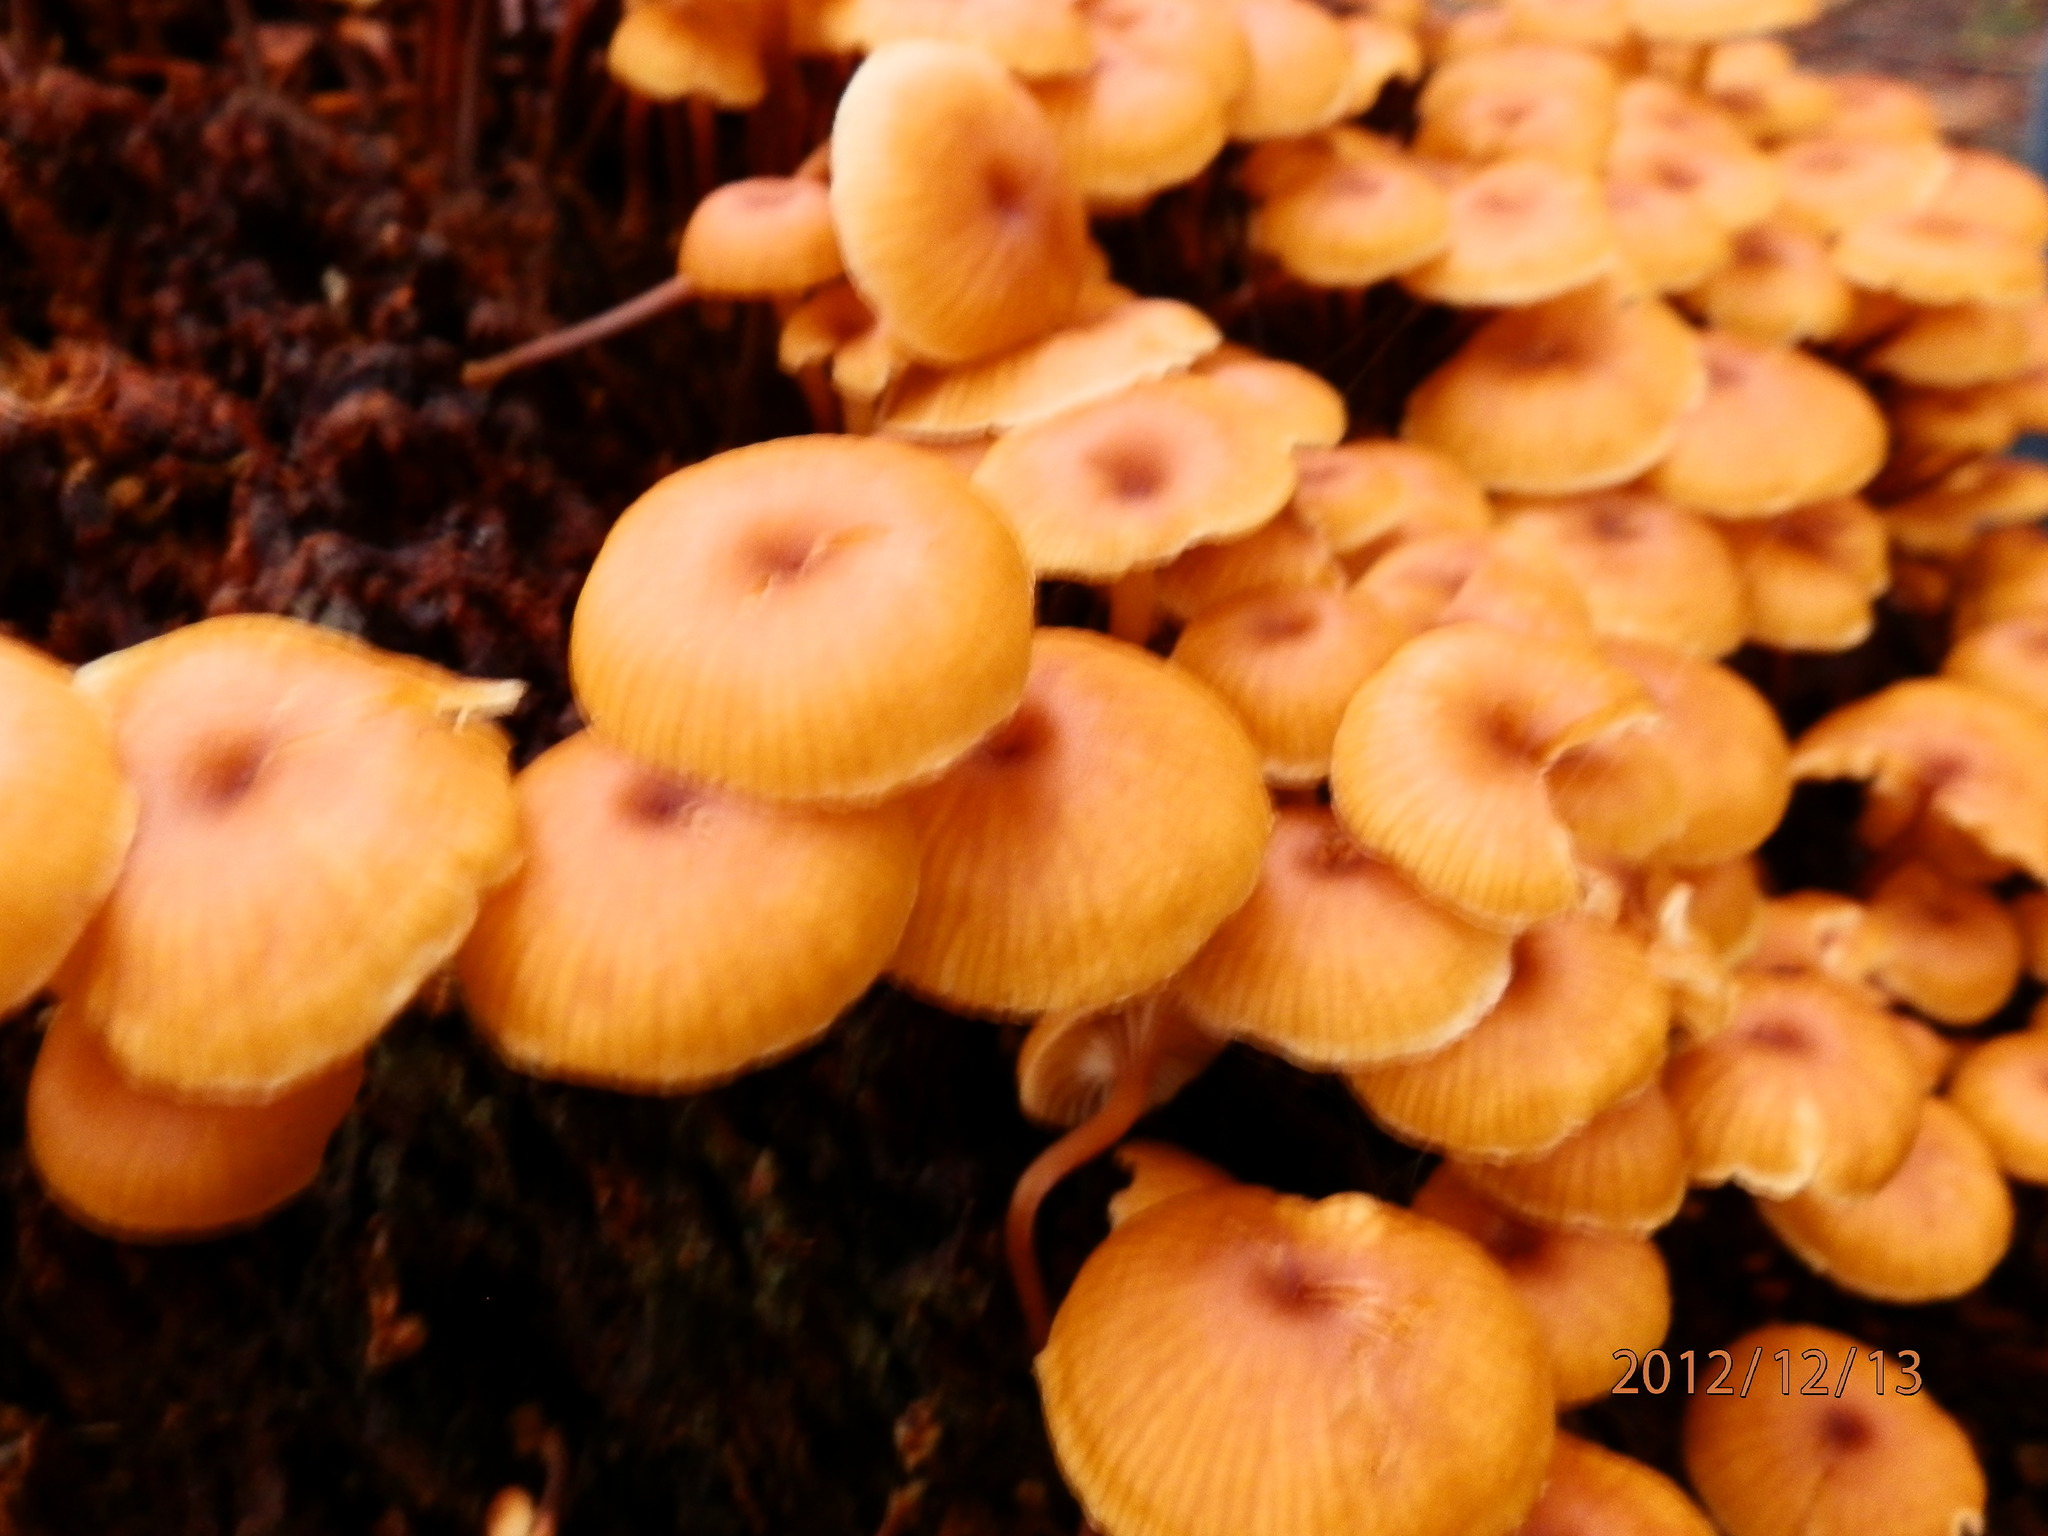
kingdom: Fungi
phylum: Basidiomycota
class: Agaricomycetes
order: Agaricales
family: Mycenaceae
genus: Xeromphalina
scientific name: Xeromphalina campanella
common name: Pinewood gingertail
